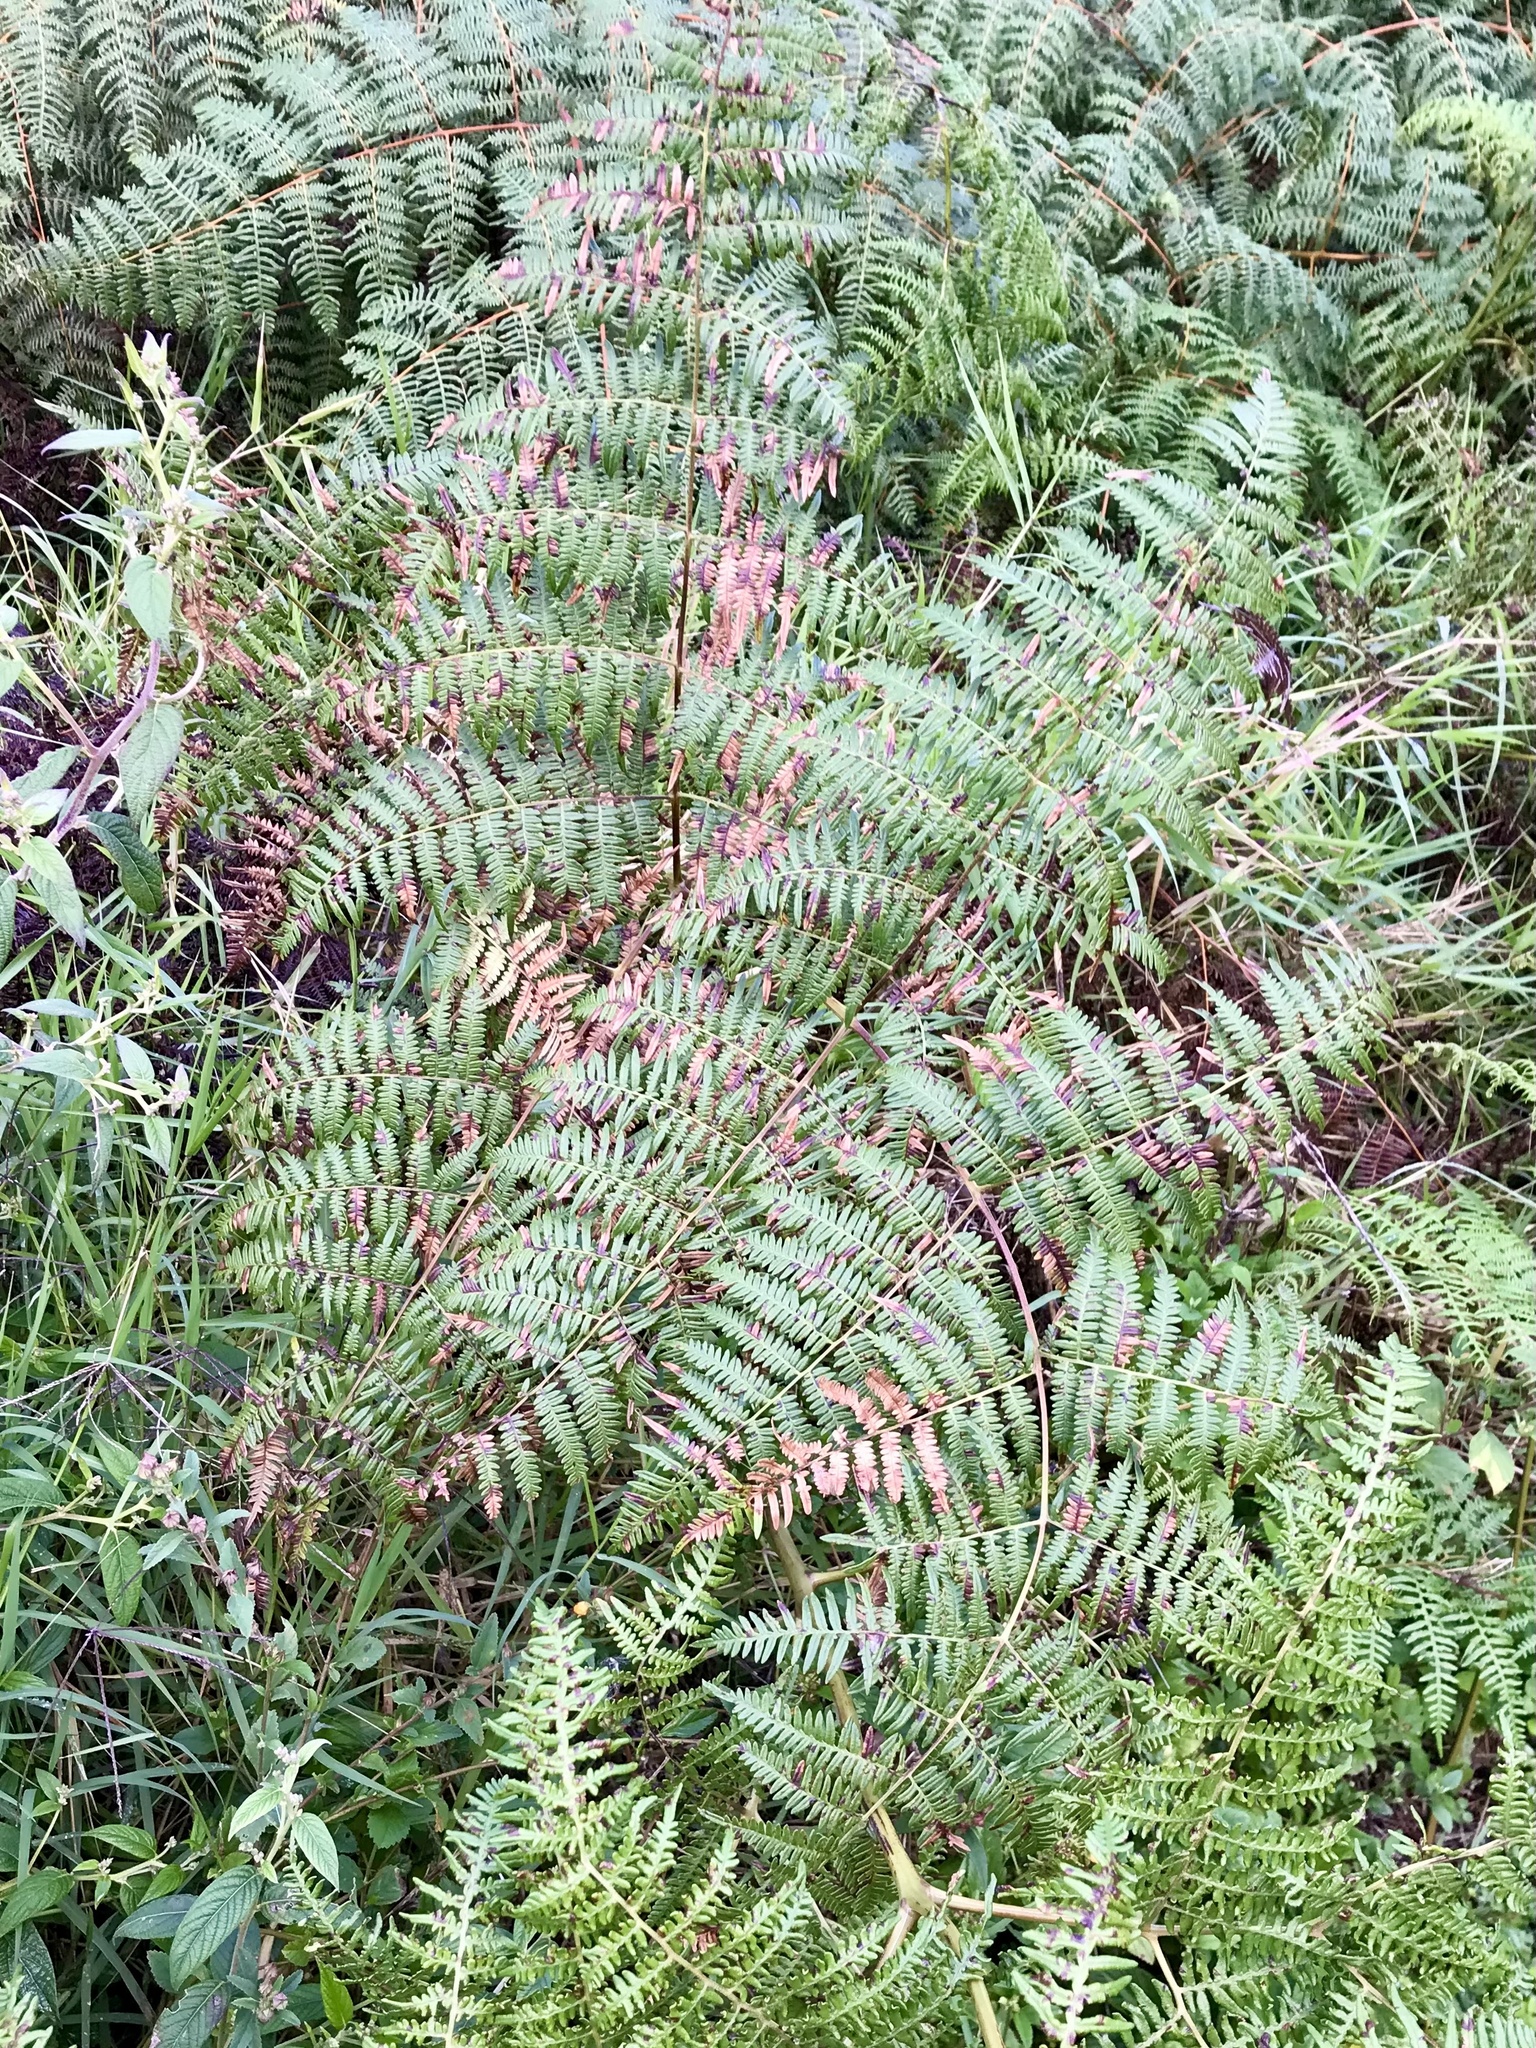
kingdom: Plantae
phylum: Tracheophyta
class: Polypodiopsida
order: Polypodiales
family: Dennstaedtiaceae
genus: Pteridium
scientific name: Pteridium aquilinum
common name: Bracken
